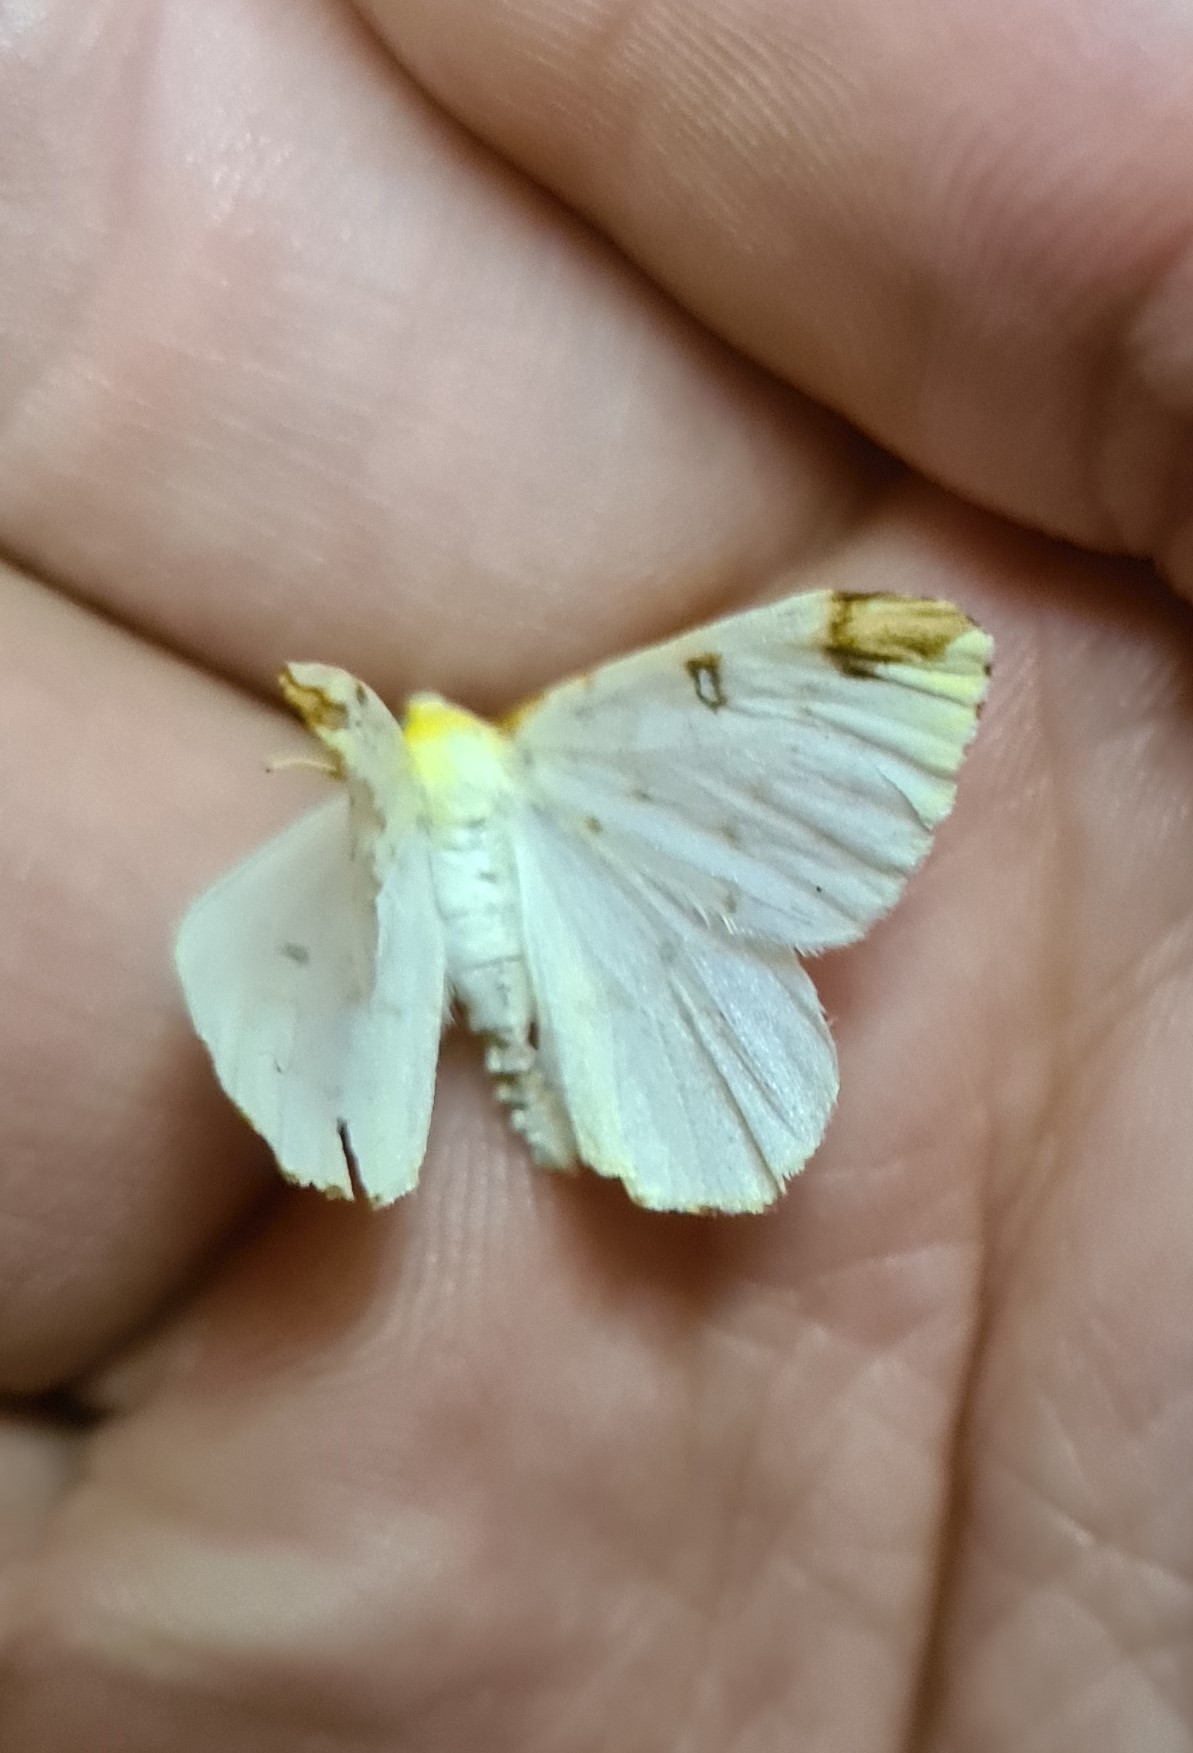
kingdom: Animalia
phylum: Arthropoda
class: Insecta
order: Lepidoptera
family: Geometridae
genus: Opisthograptis
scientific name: Opisthograptis luteolata
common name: Brimstone moth
